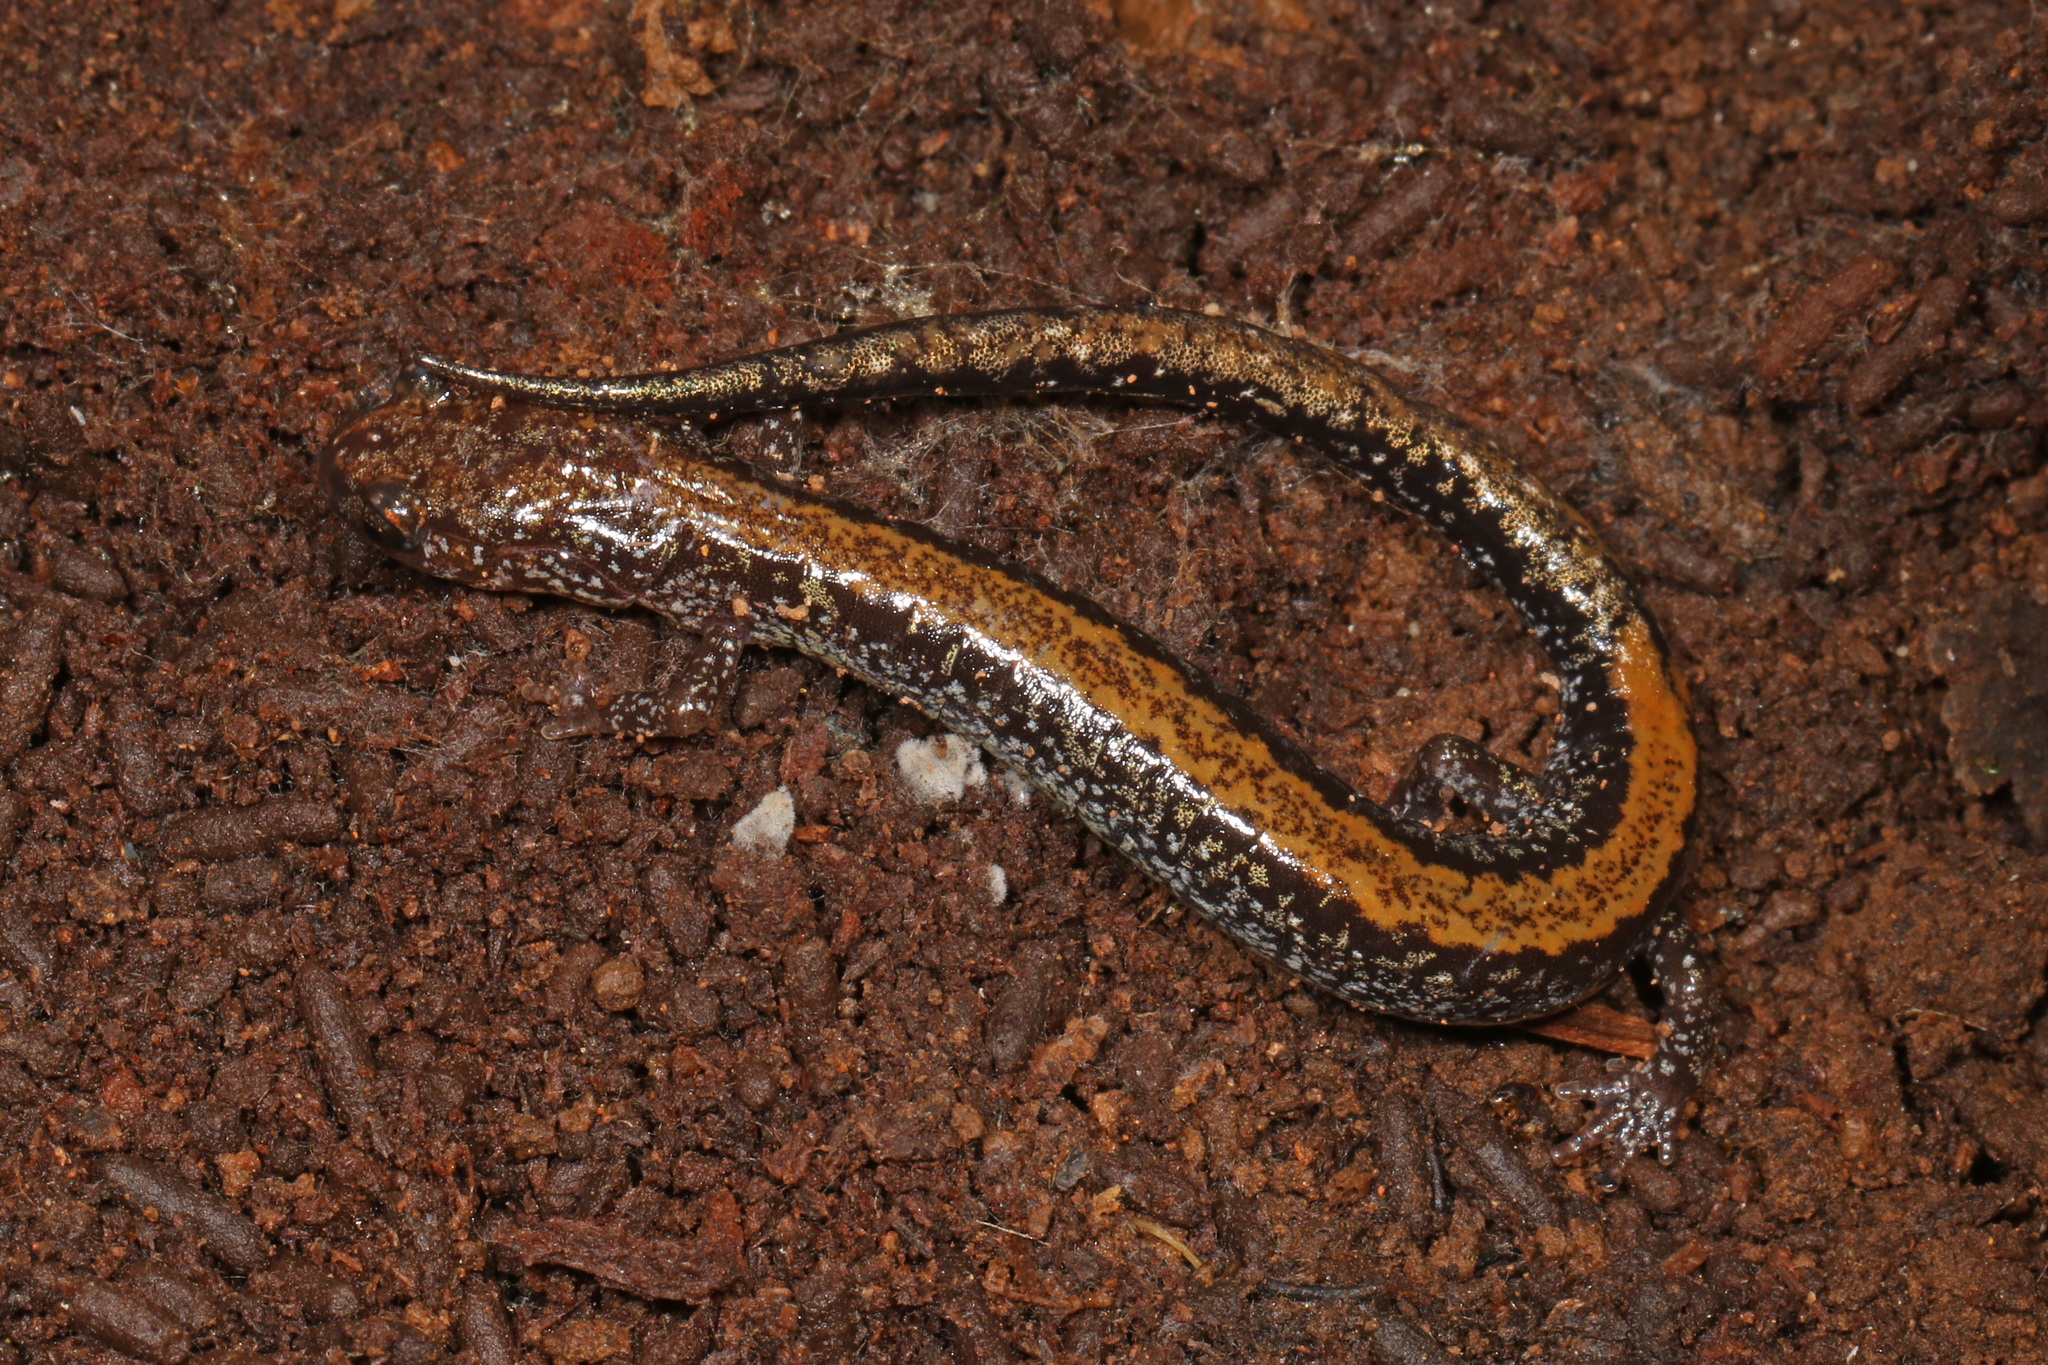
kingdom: Animalia
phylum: Chordata
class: Amphibia
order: Caudata
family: Plethodontidae
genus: Plethodon
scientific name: Plethodon cinereus
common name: Redback salamander
